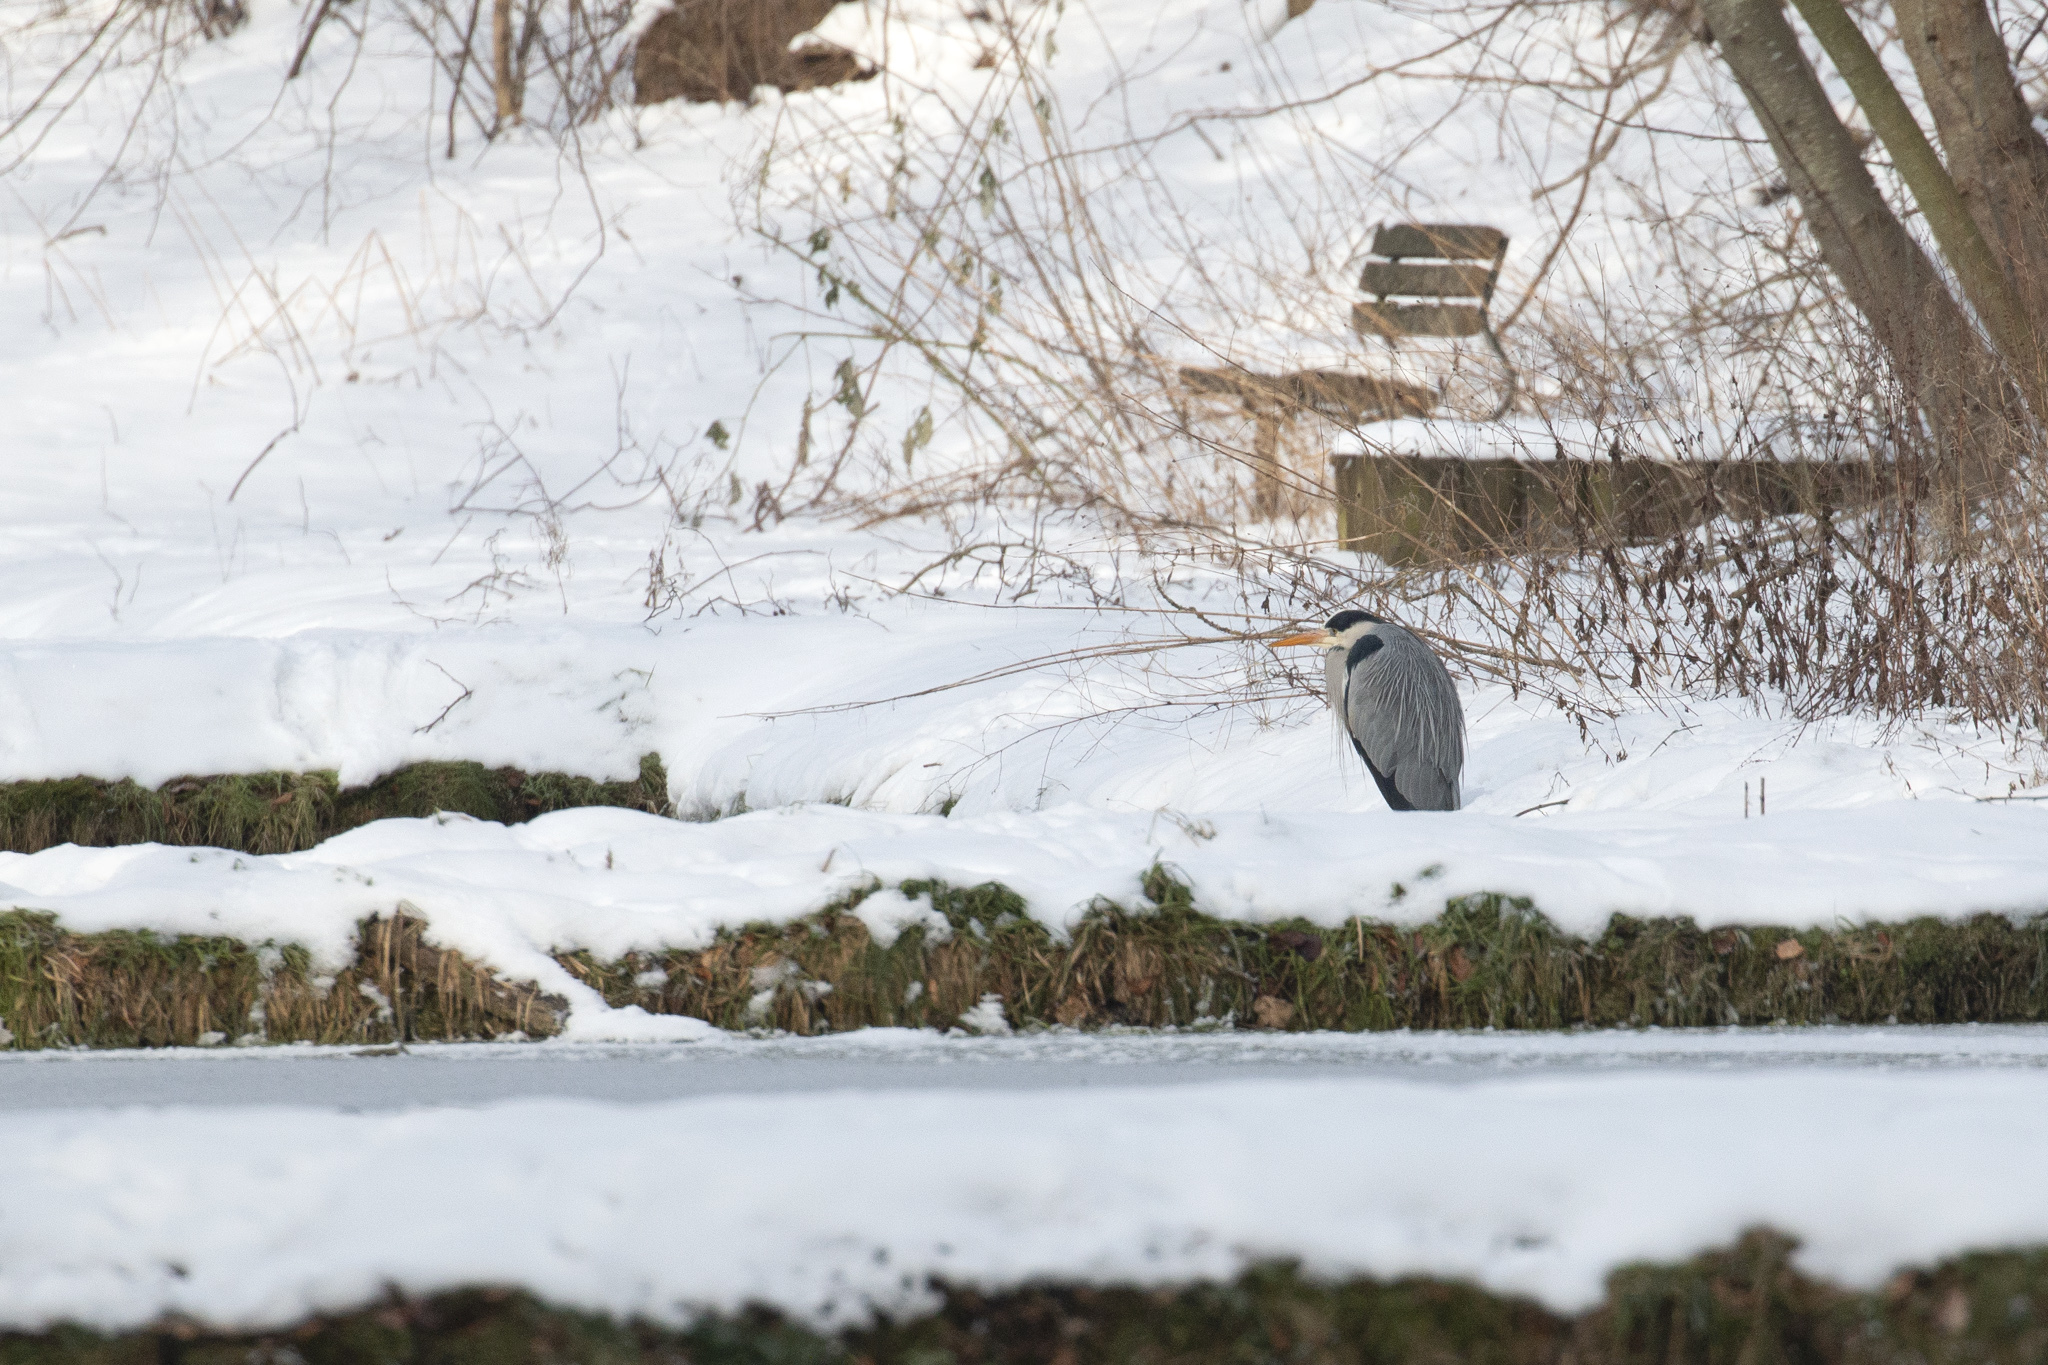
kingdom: Animalia
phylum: Chordata
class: Aves
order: Pelecaniformes
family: Ardeidae
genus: Ardea
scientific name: Ardea cinerea
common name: Grey heron
